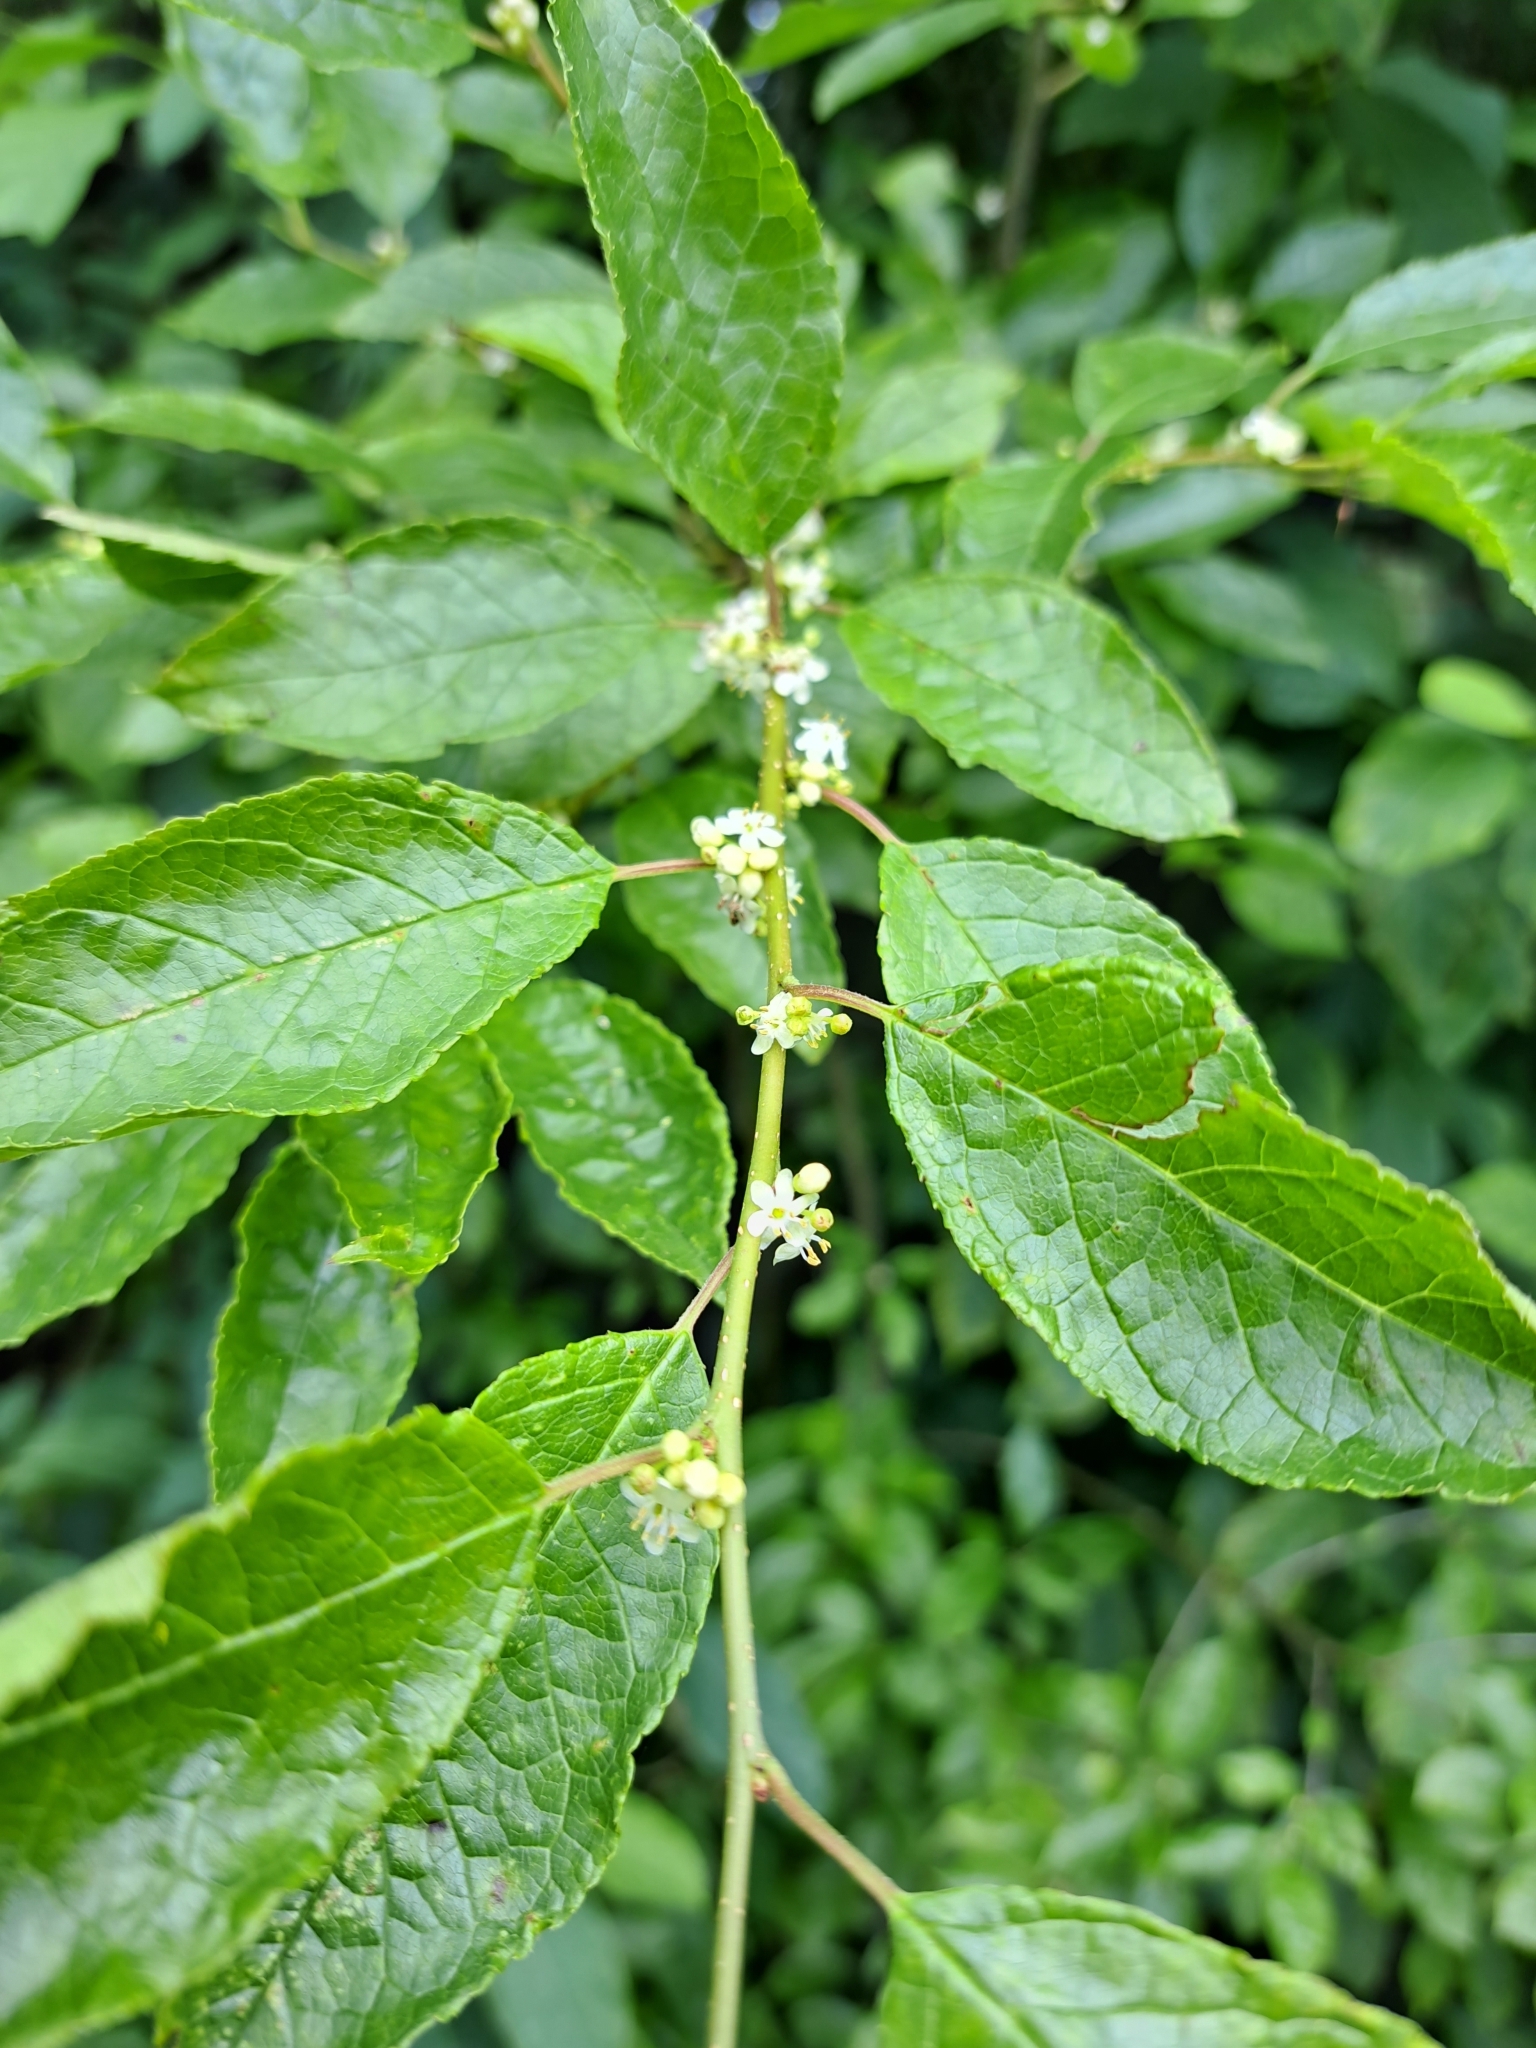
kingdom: Plantae
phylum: Tracheophyta
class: Magnoliopsida
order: Aquifoliales
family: Aquifoliaceae
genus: Ilex
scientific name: Ilex verticillata
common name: Virginia winterberry
